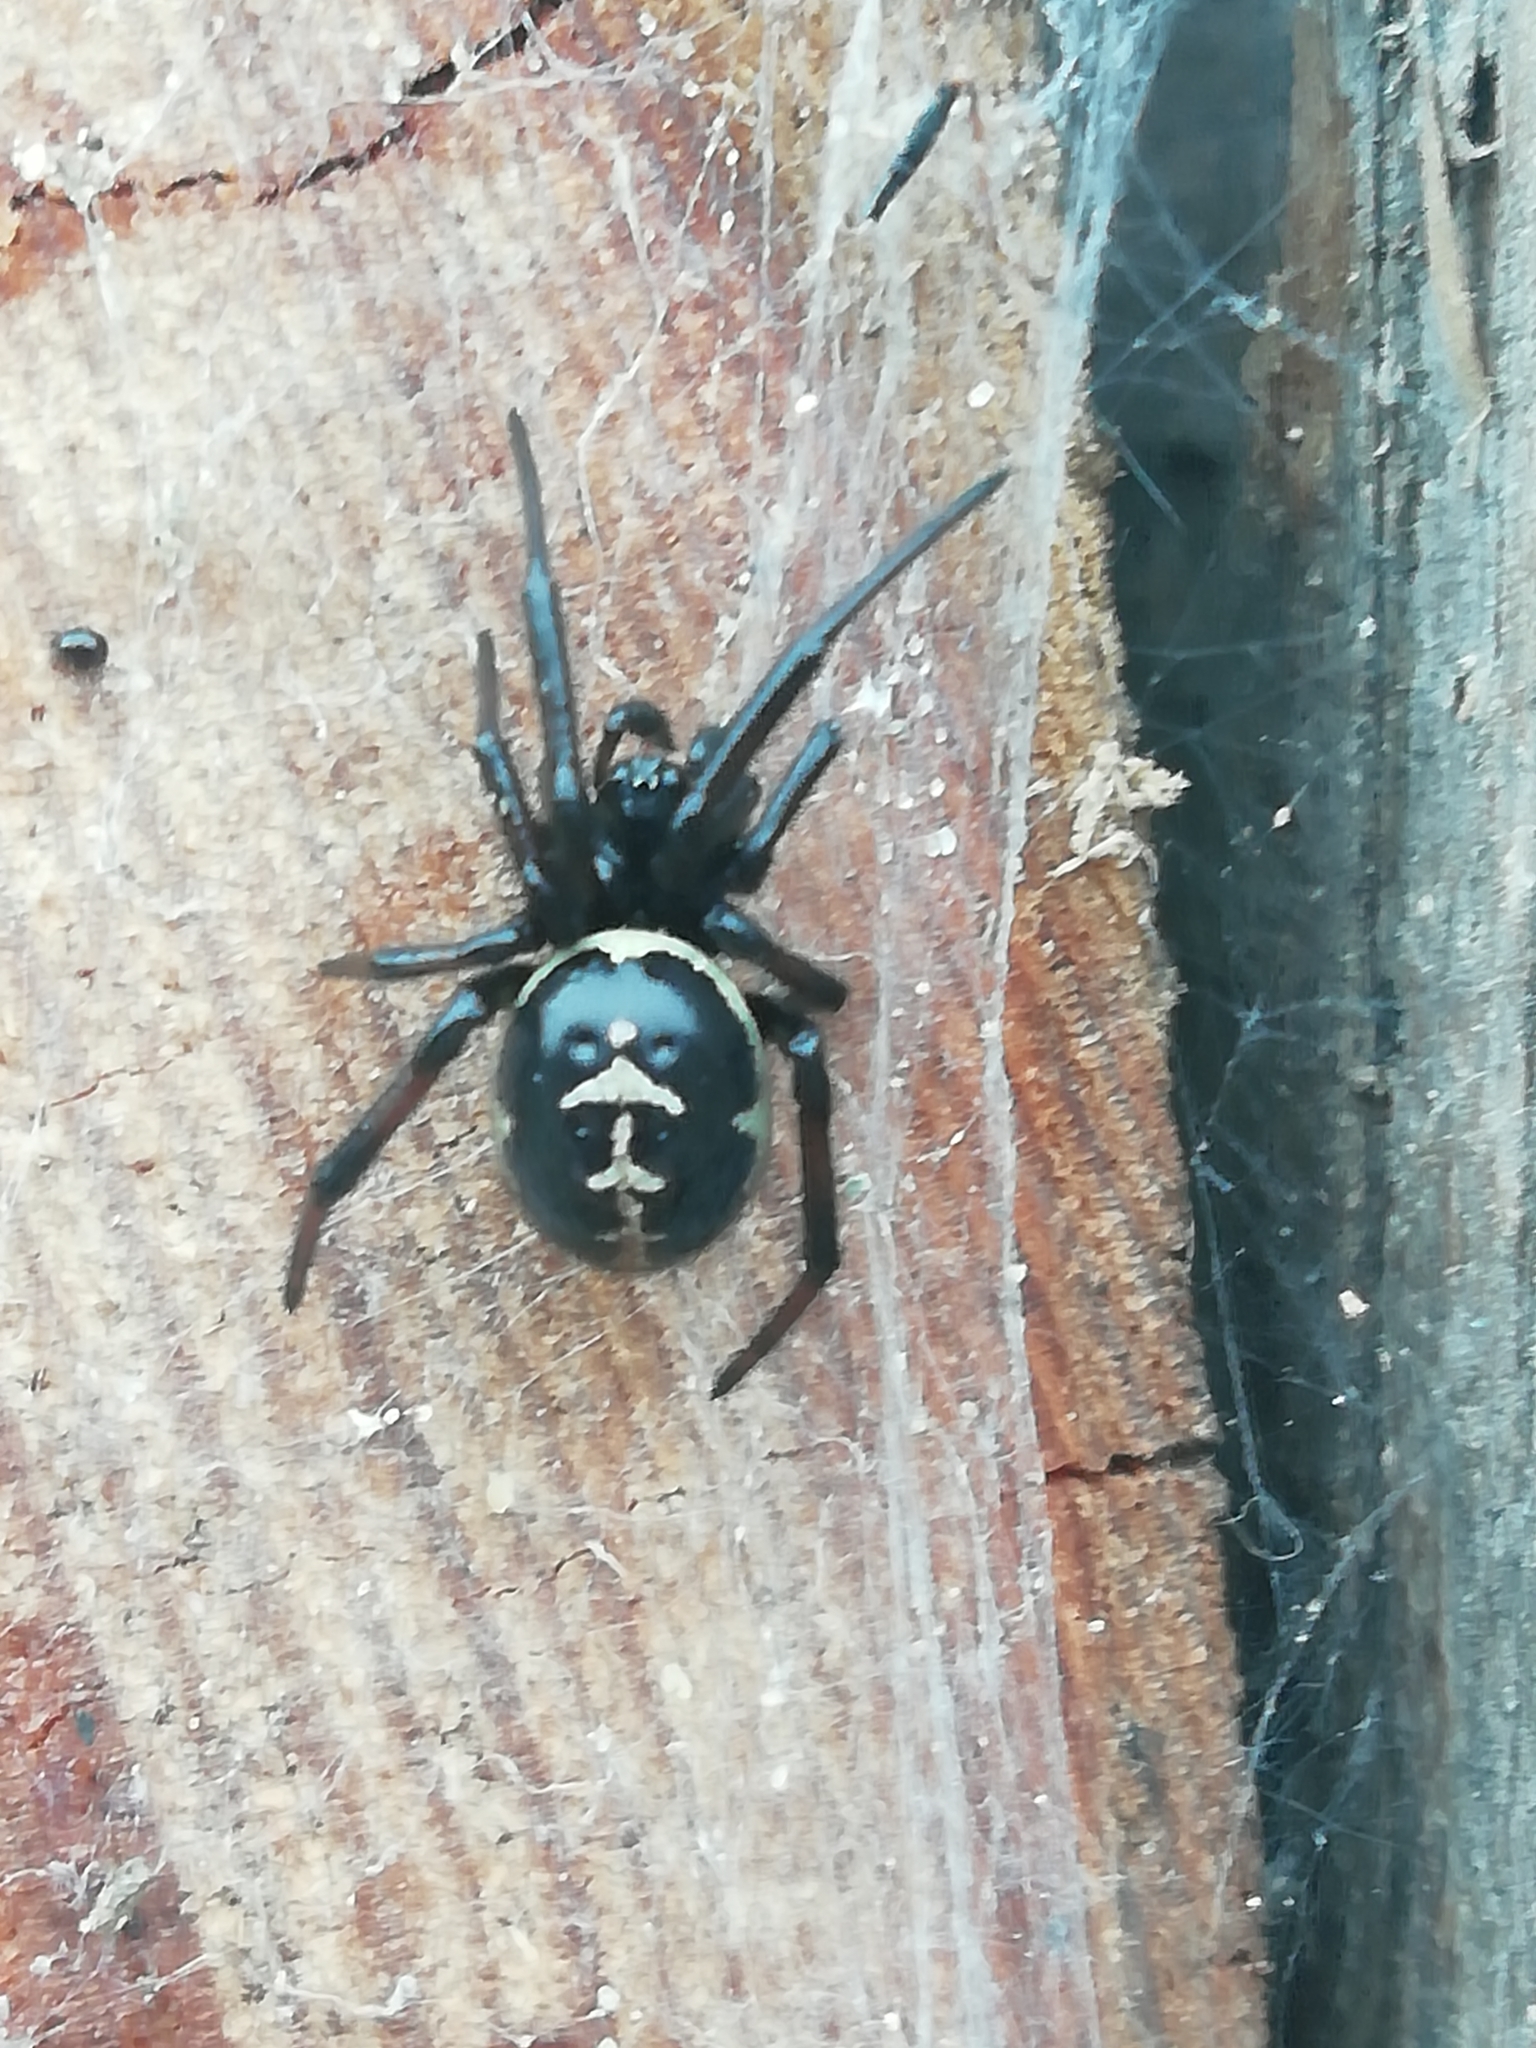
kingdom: Animalia
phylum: Arthropoda
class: Arachnida
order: Araneae
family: Theridiidae
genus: Steatoda
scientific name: Steatoda paykulliana
